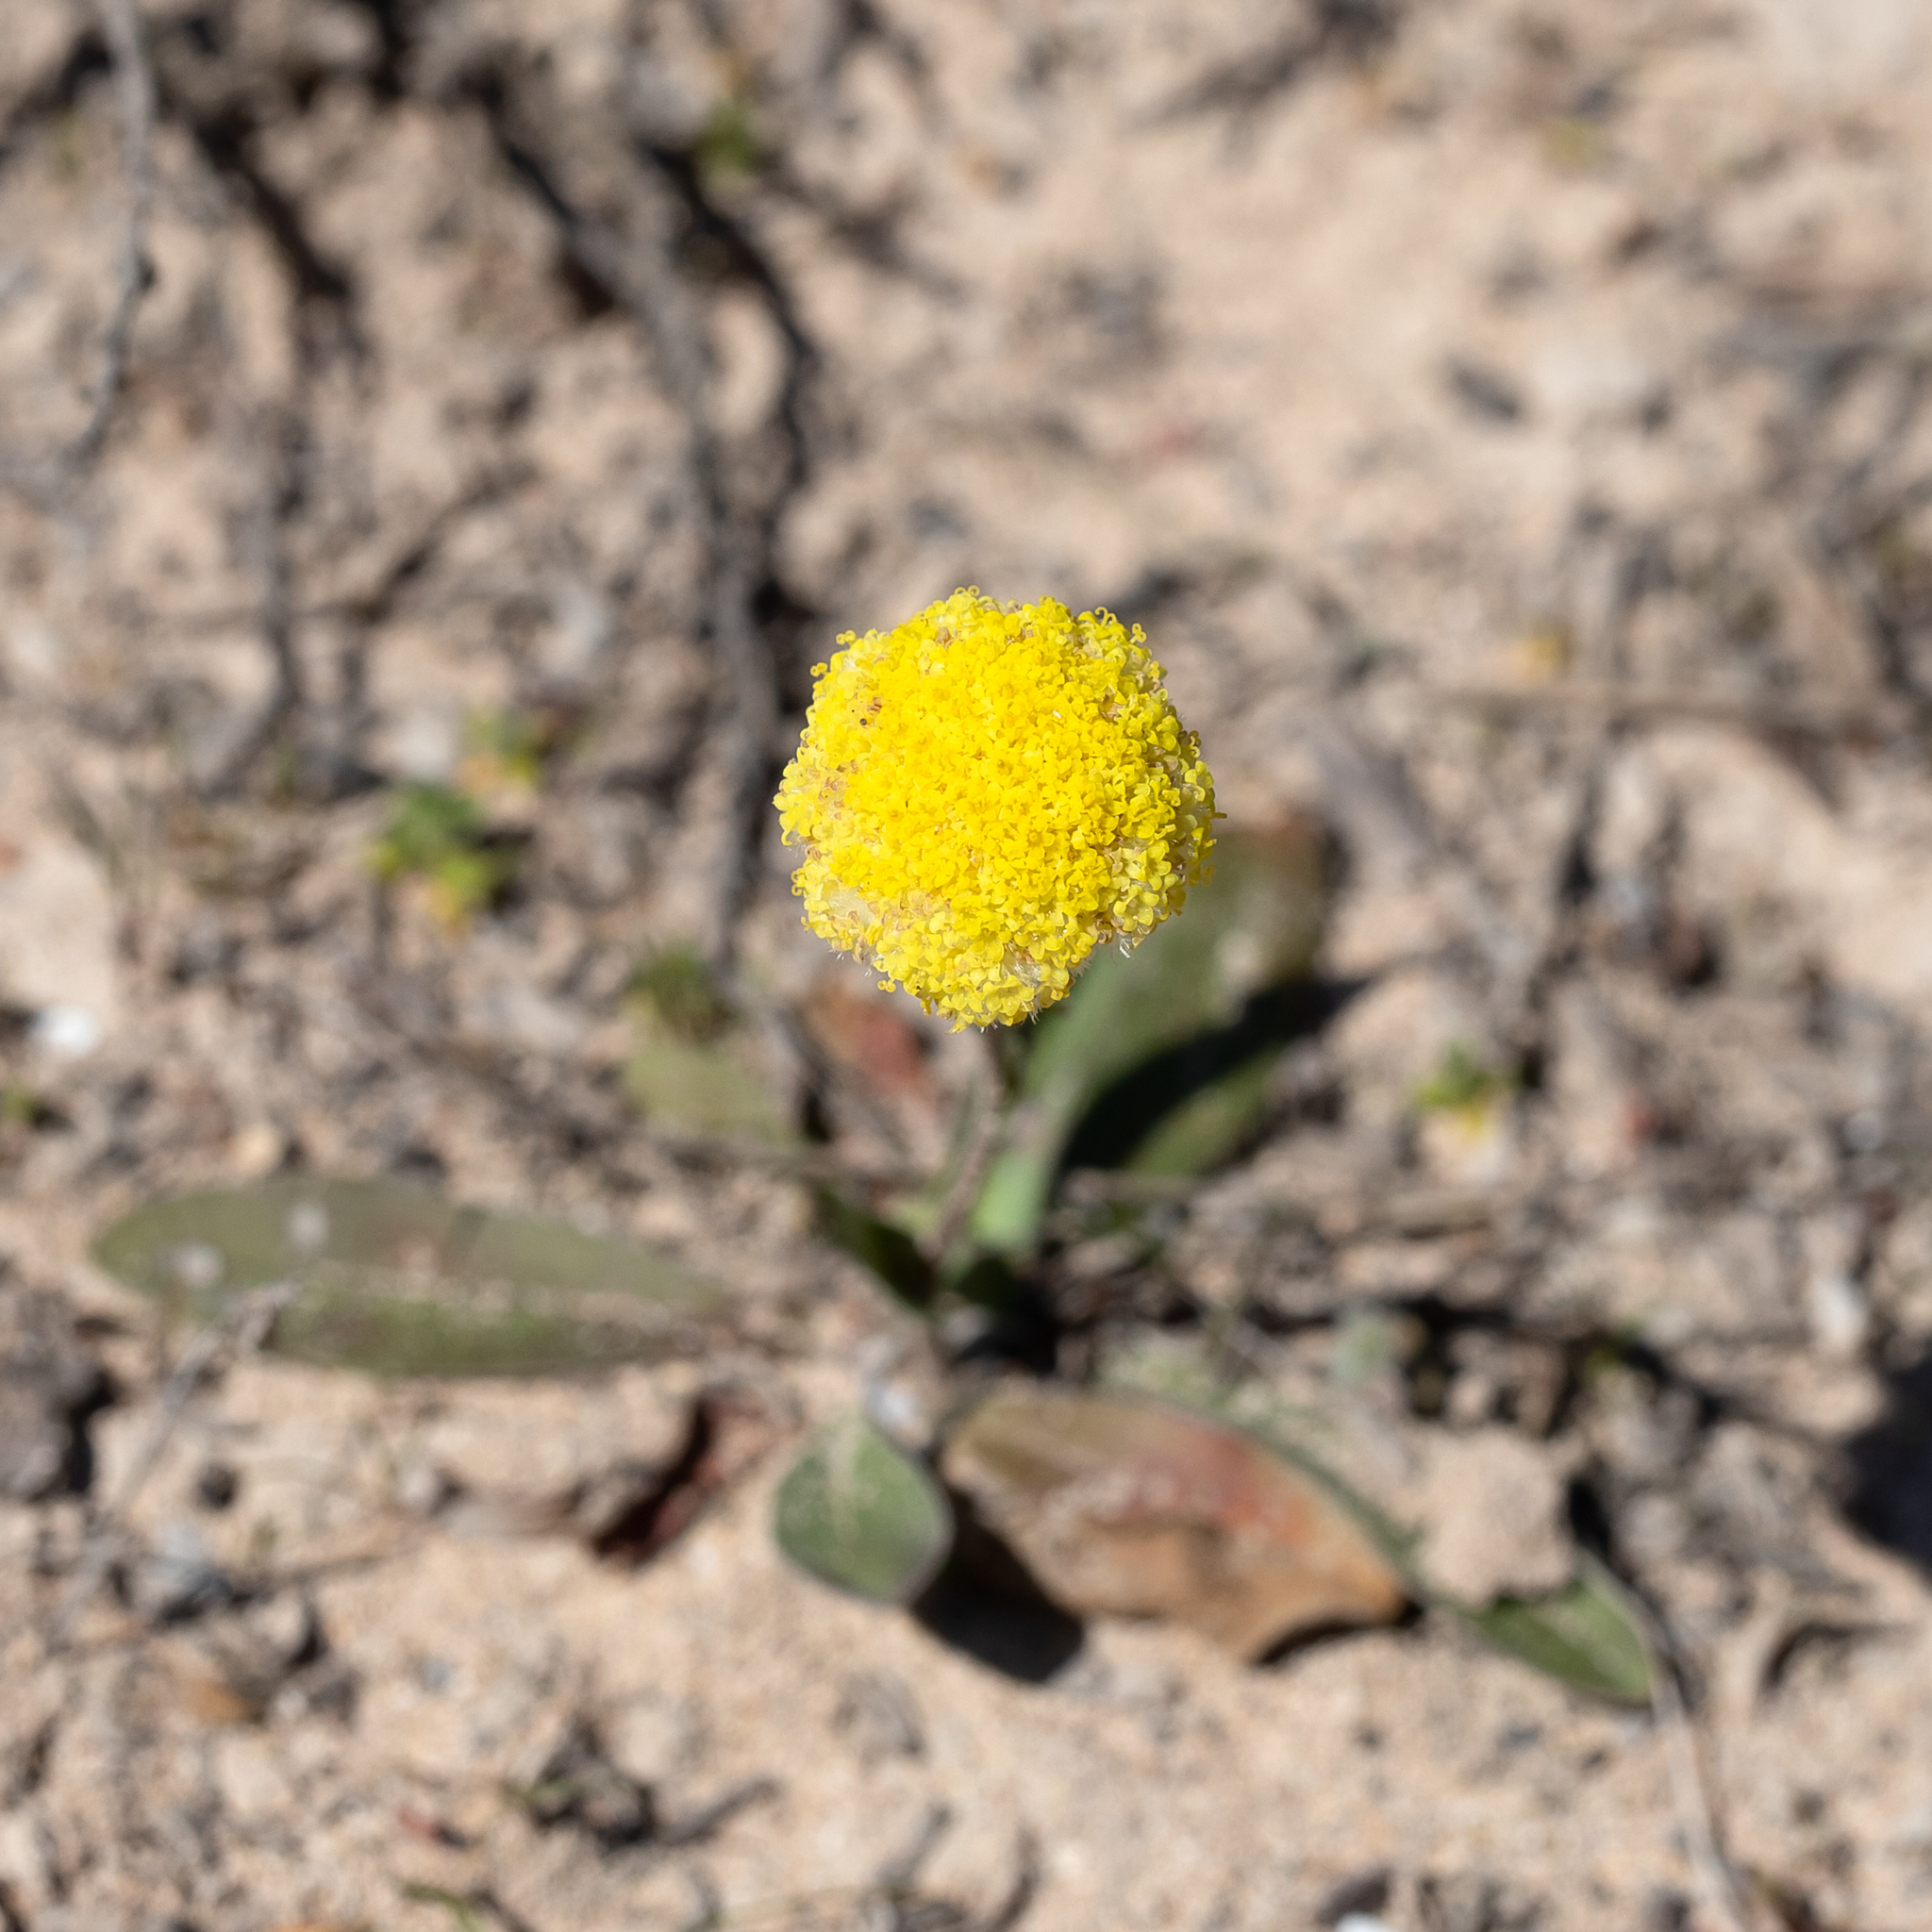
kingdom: Plantae
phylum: Tracheophyta
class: Magnoliopsida
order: Asterales
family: Asteraceae
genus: Craspedia
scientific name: Craspedia variabilis
